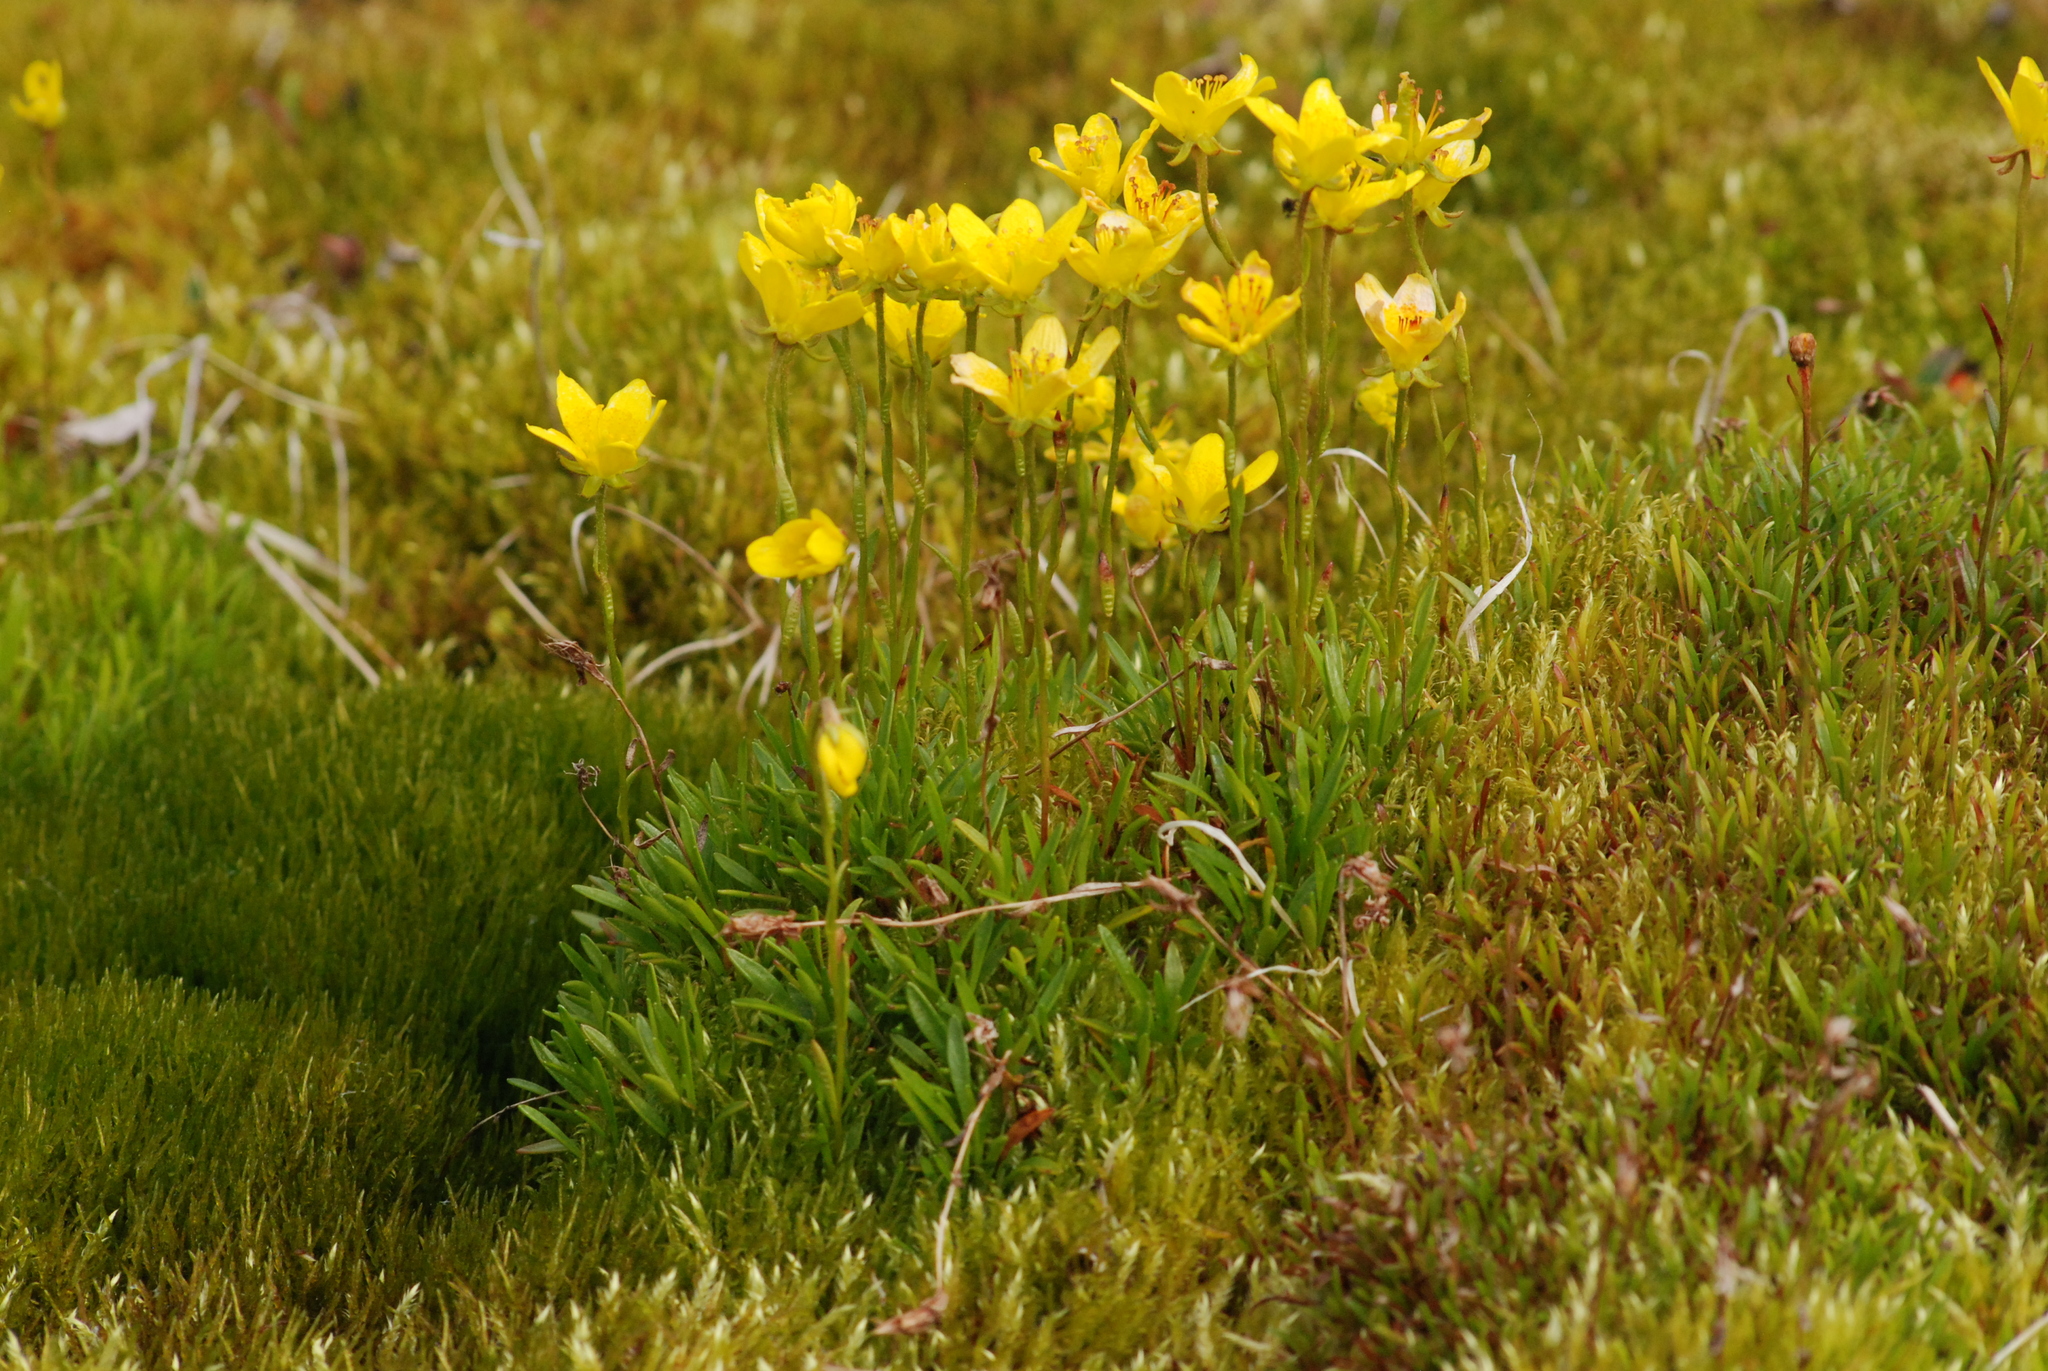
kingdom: Plantae
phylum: Tracheophyta
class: Magnoliopsida
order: Saxifragales
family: Saxifragaceae
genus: Saxifraga
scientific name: Saxifraga hirculus
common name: Yellow marsh saxifrage
